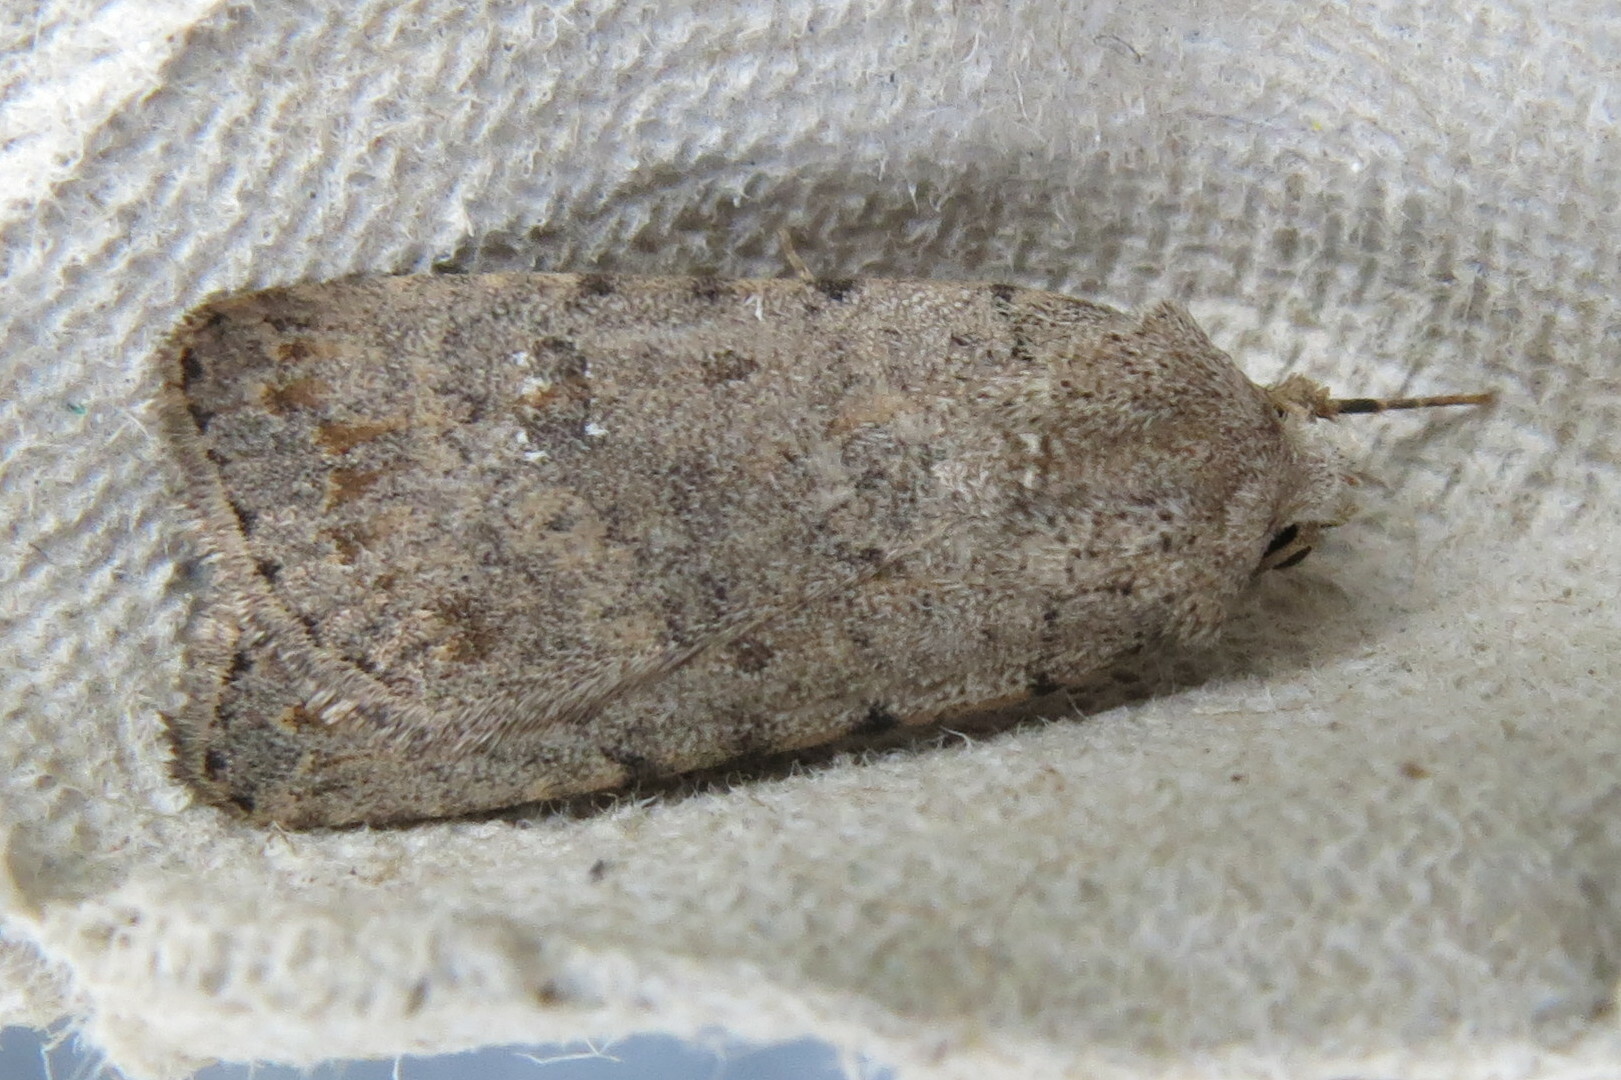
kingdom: Animalia
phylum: Arthropoda
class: Insecta
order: Lepidoptera
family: Noctuidae
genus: Caradrina
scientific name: Caradrina clavipalpis
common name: Pale mottled willow
